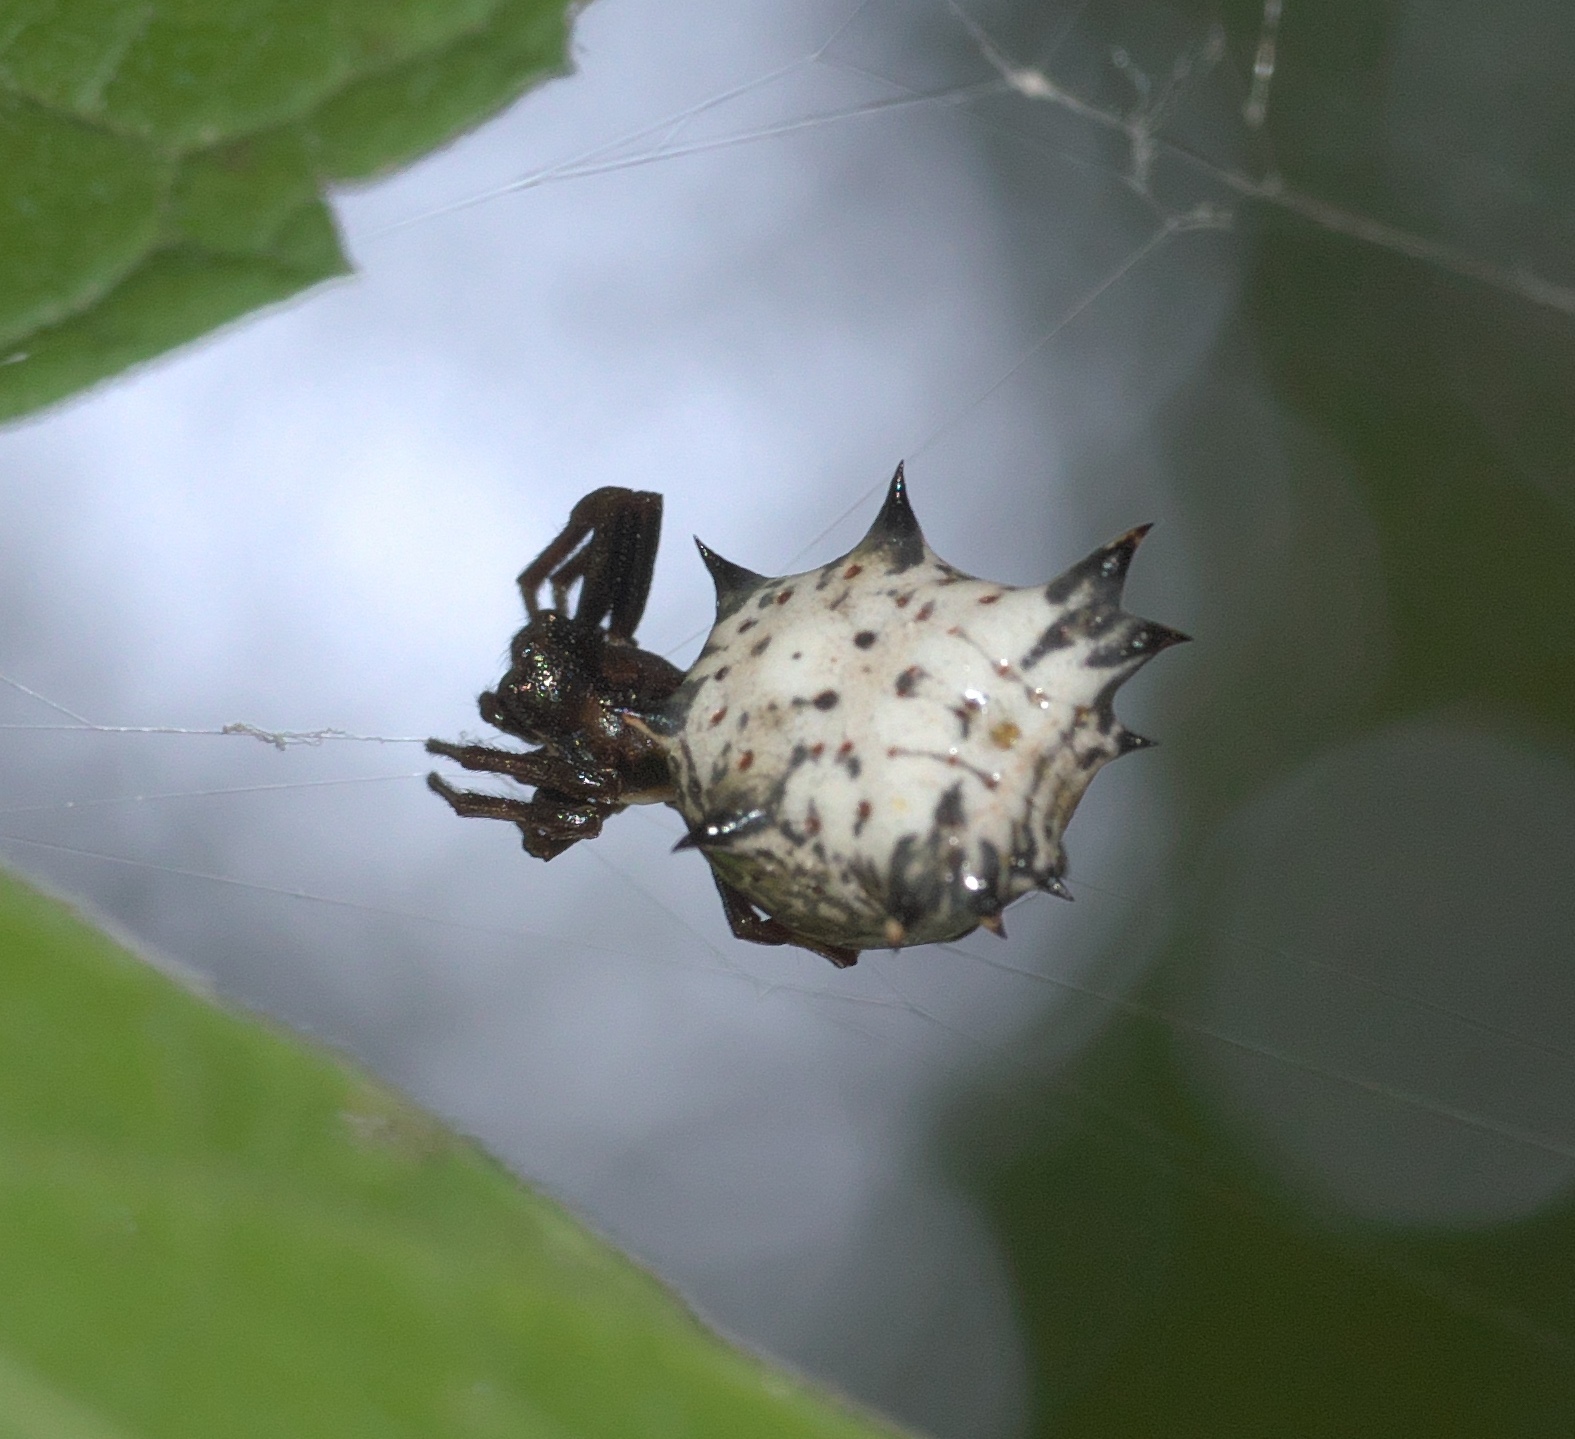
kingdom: Animalia
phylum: Arthropoda
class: Arachnida
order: Araneae
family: Araneidae
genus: Micrathena
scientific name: Micrathena gracilis
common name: Orb weavers
